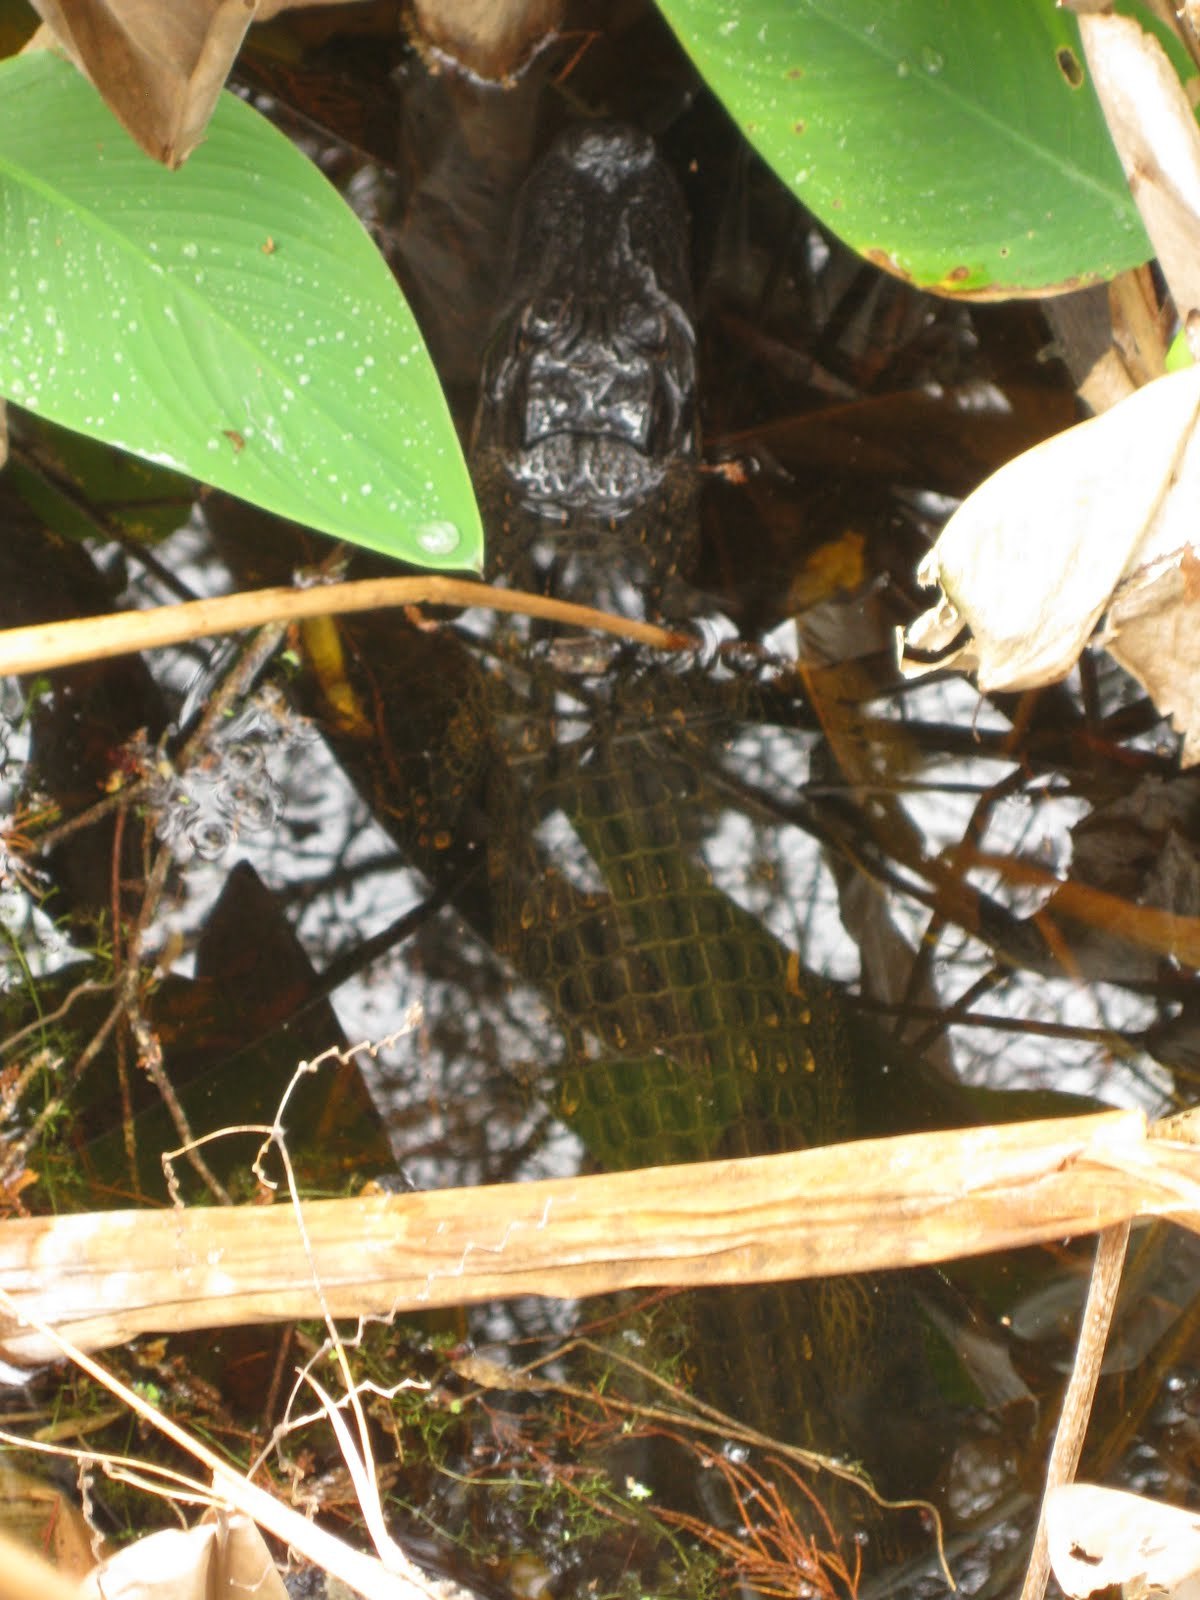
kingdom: Animalia
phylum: Chordata
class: Crocodylia
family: Alligatoridae
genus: Alligator
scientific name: Alligator mississippiensis
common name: American alligator
